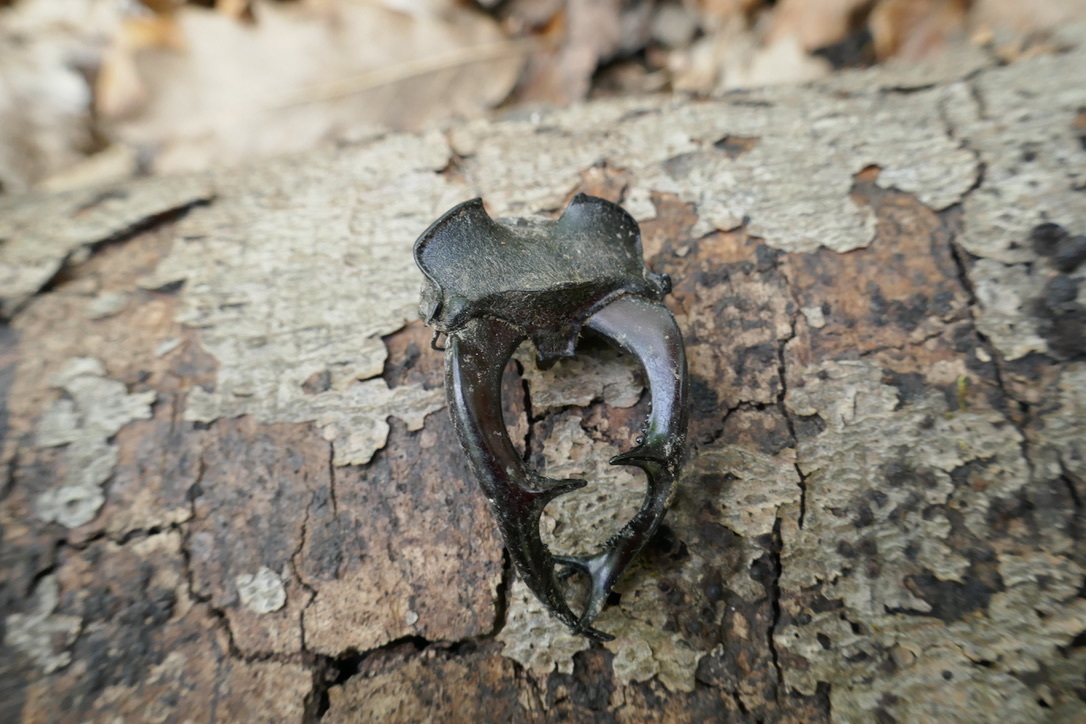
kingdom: Animalia
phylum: Arthropoda
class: Insecta
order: Coleoptera
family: Lucanidae
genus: Lucanus
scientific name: Lucanus cervus
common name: Stag beetle
